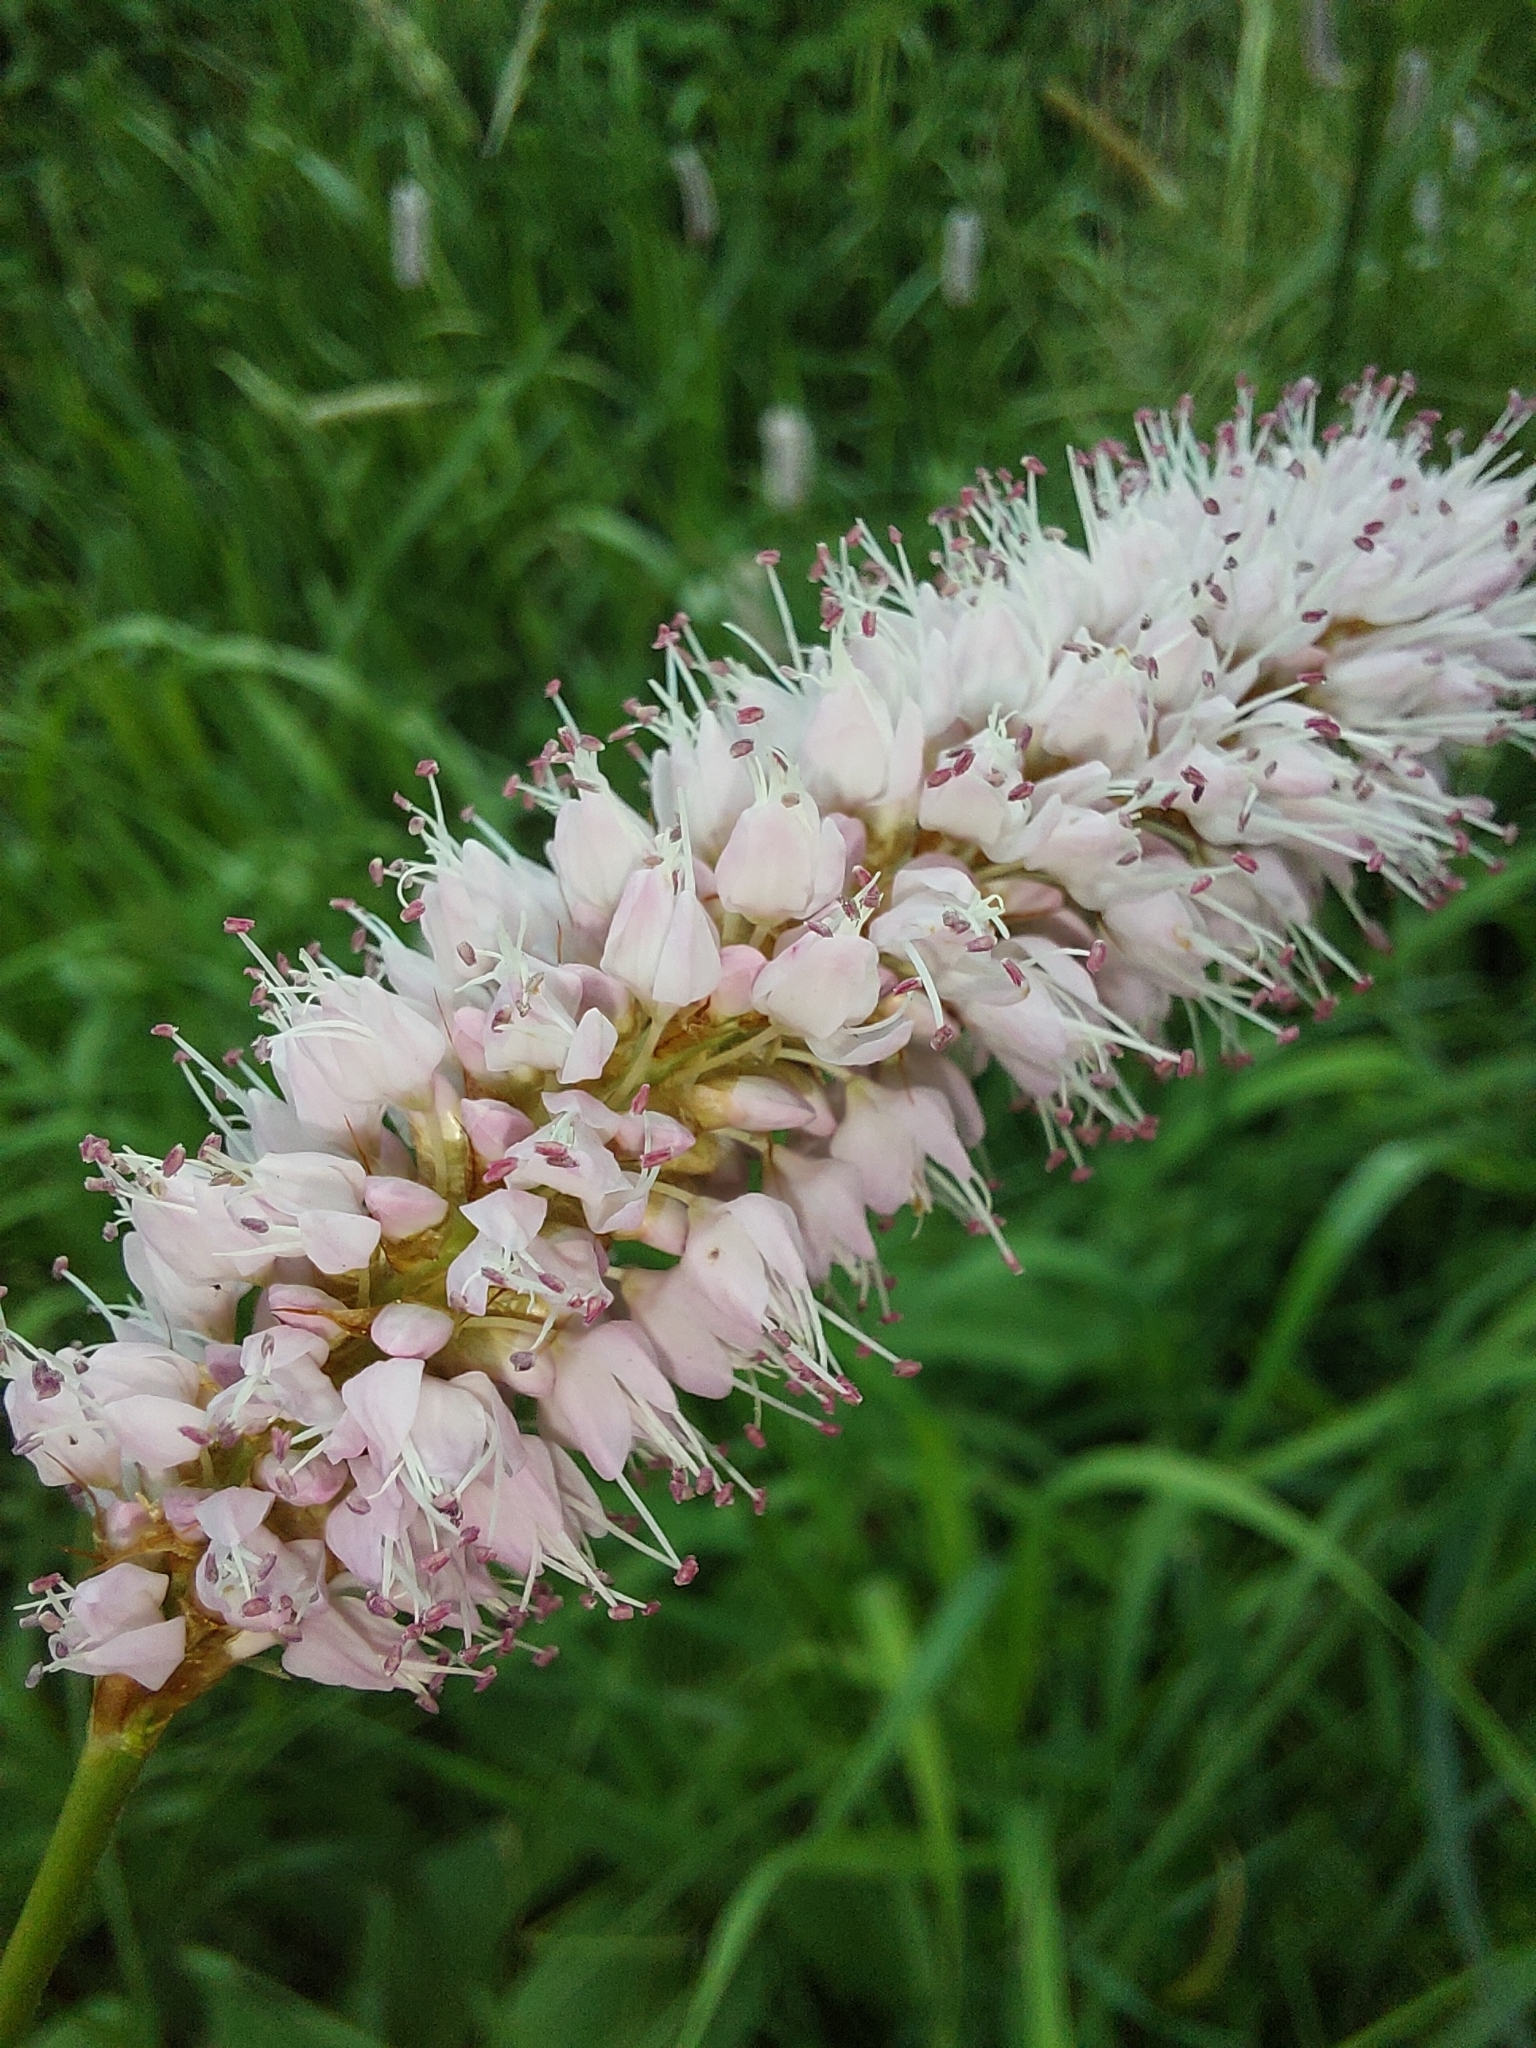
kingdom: Plantae
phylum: Tracheophyta
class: Magnoliopsida
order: Caryophyllales
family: Polygonaceae
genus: Bistorta
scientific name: Bistorta officinalis
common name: Common bistort
